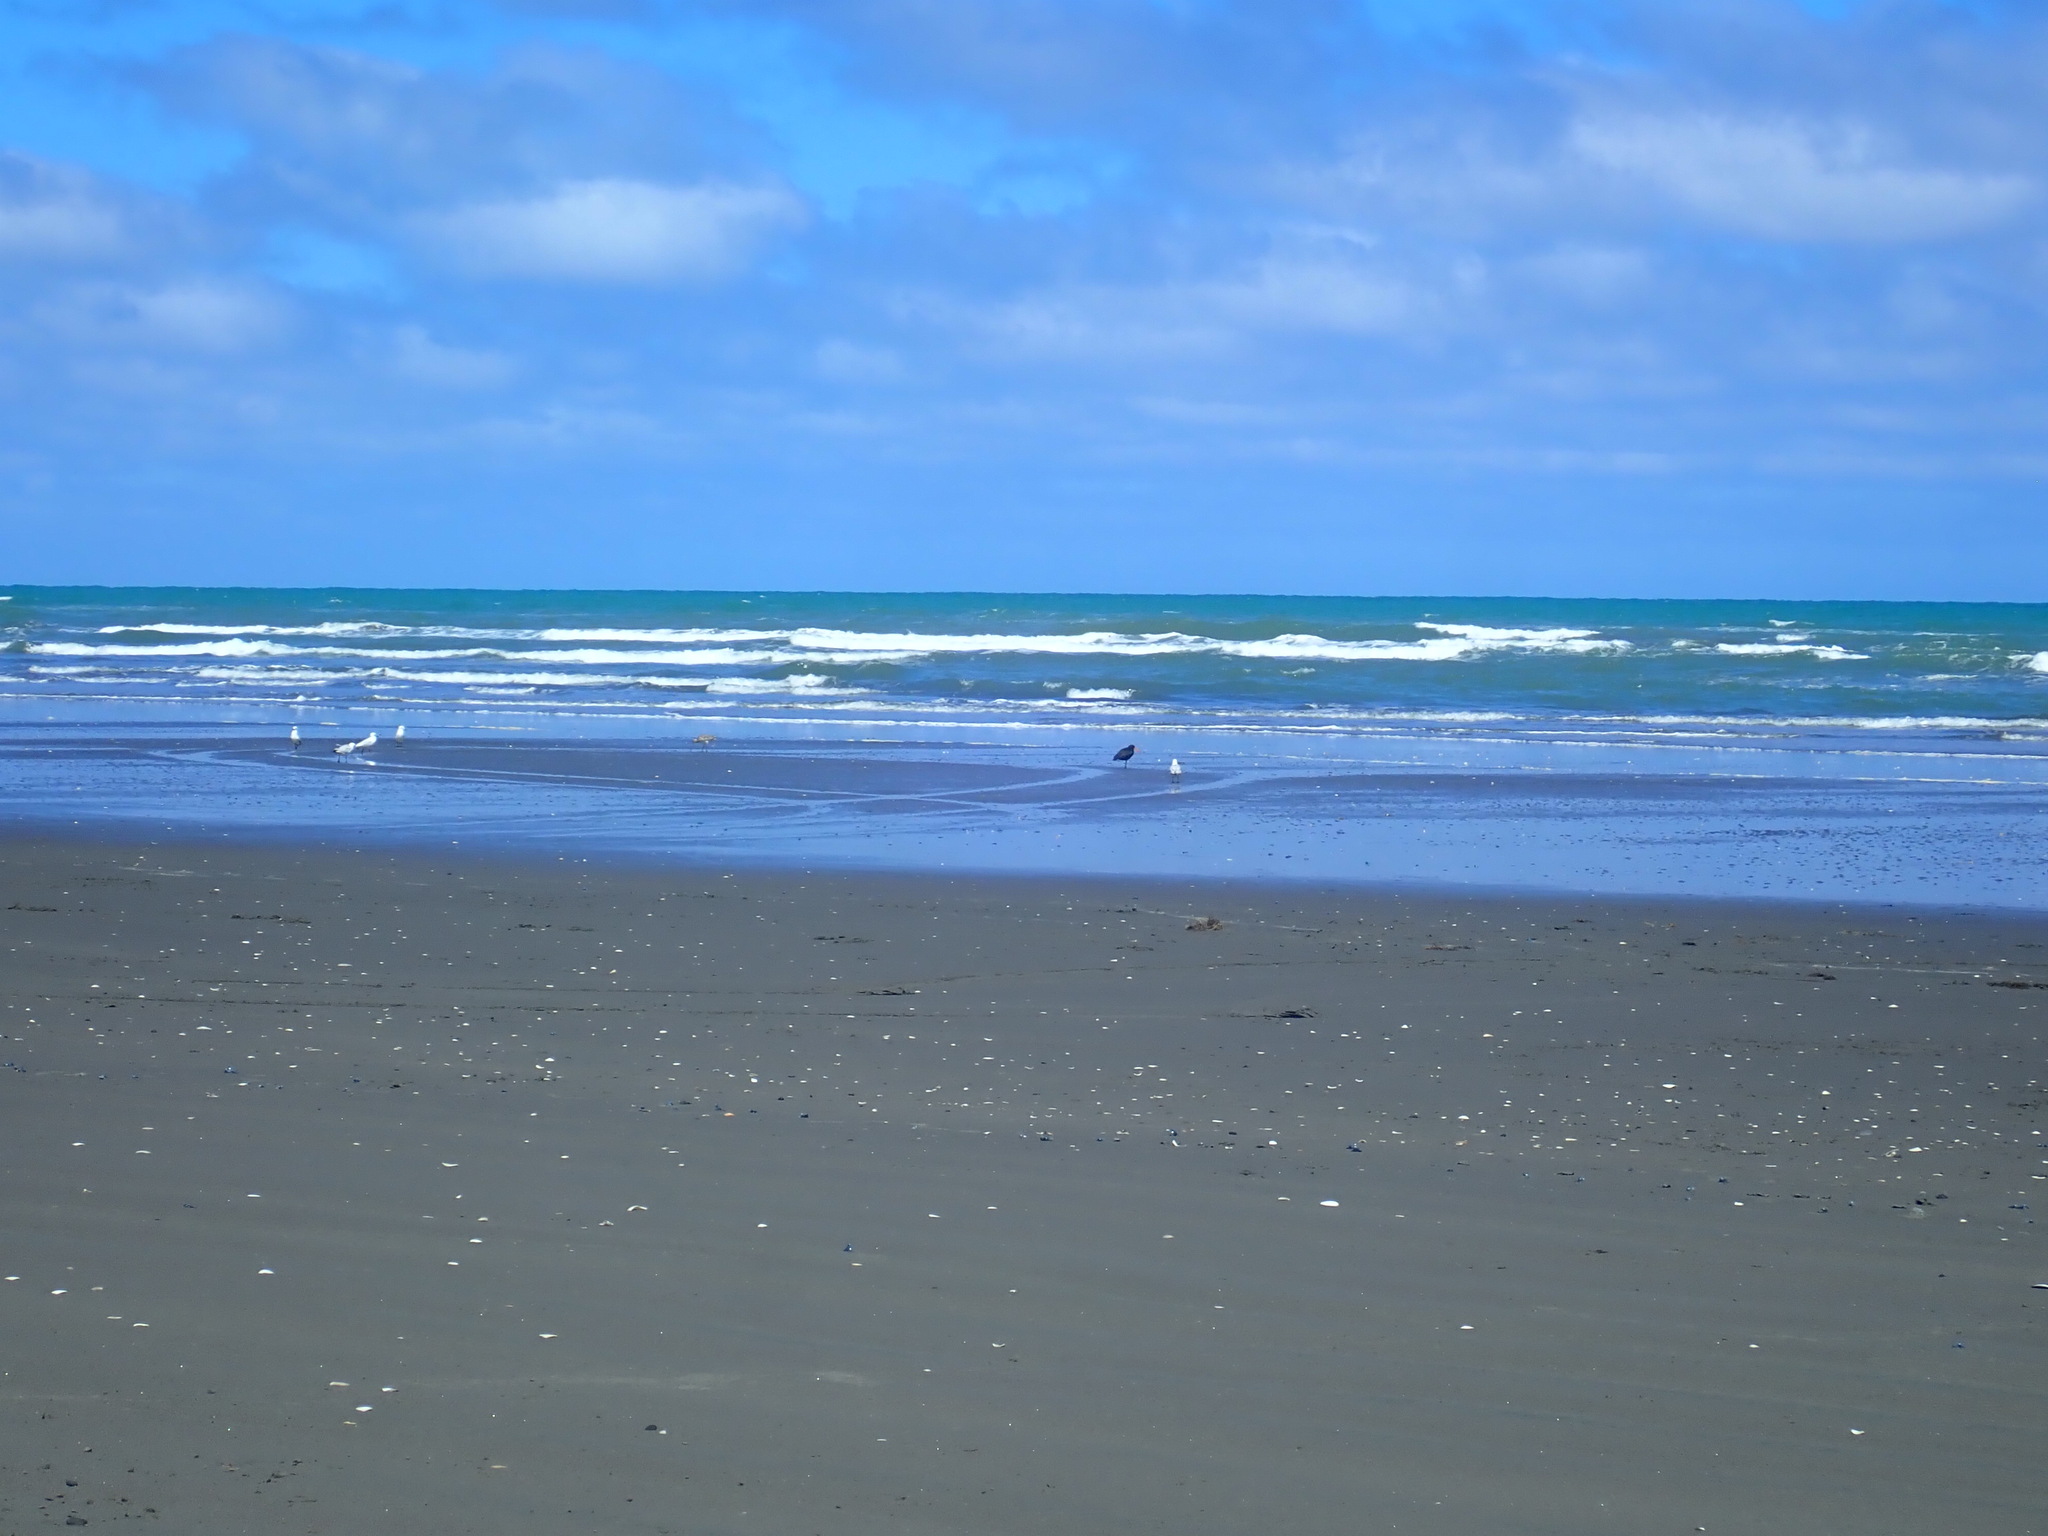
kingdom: Animalia
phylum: Chordata
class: Aves
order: Charadriiformes
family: Haematopodidae
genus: Haematopus
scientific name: Haematopus unicolor
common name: Variable oystercatcher
